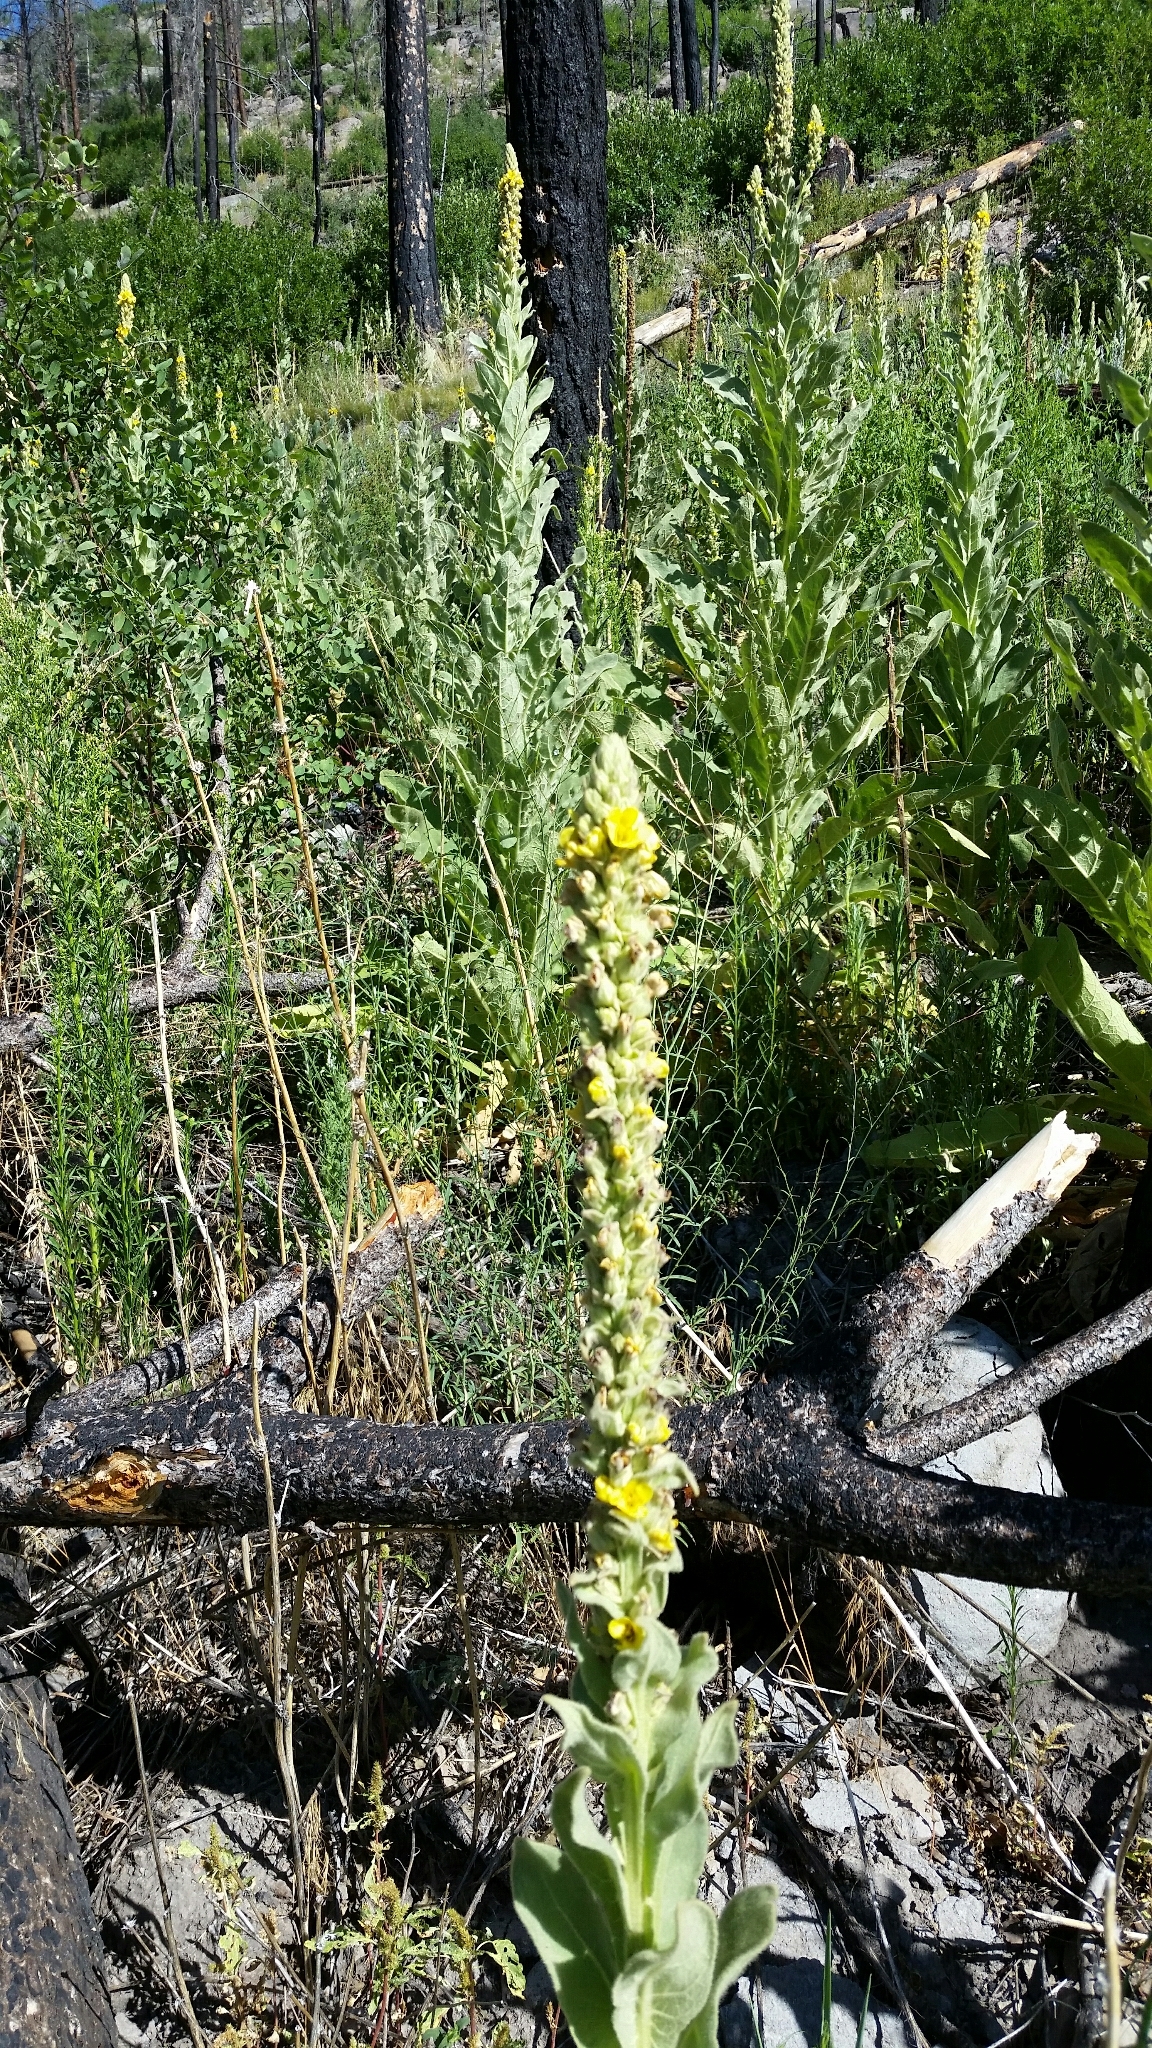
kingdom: Plantae
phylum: Tracheophyta
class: Magnoliopsida
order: Lamiales
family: Scrophulariaceae
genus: Verbascum
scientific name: Verbascum thapsus
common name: Common mullein
